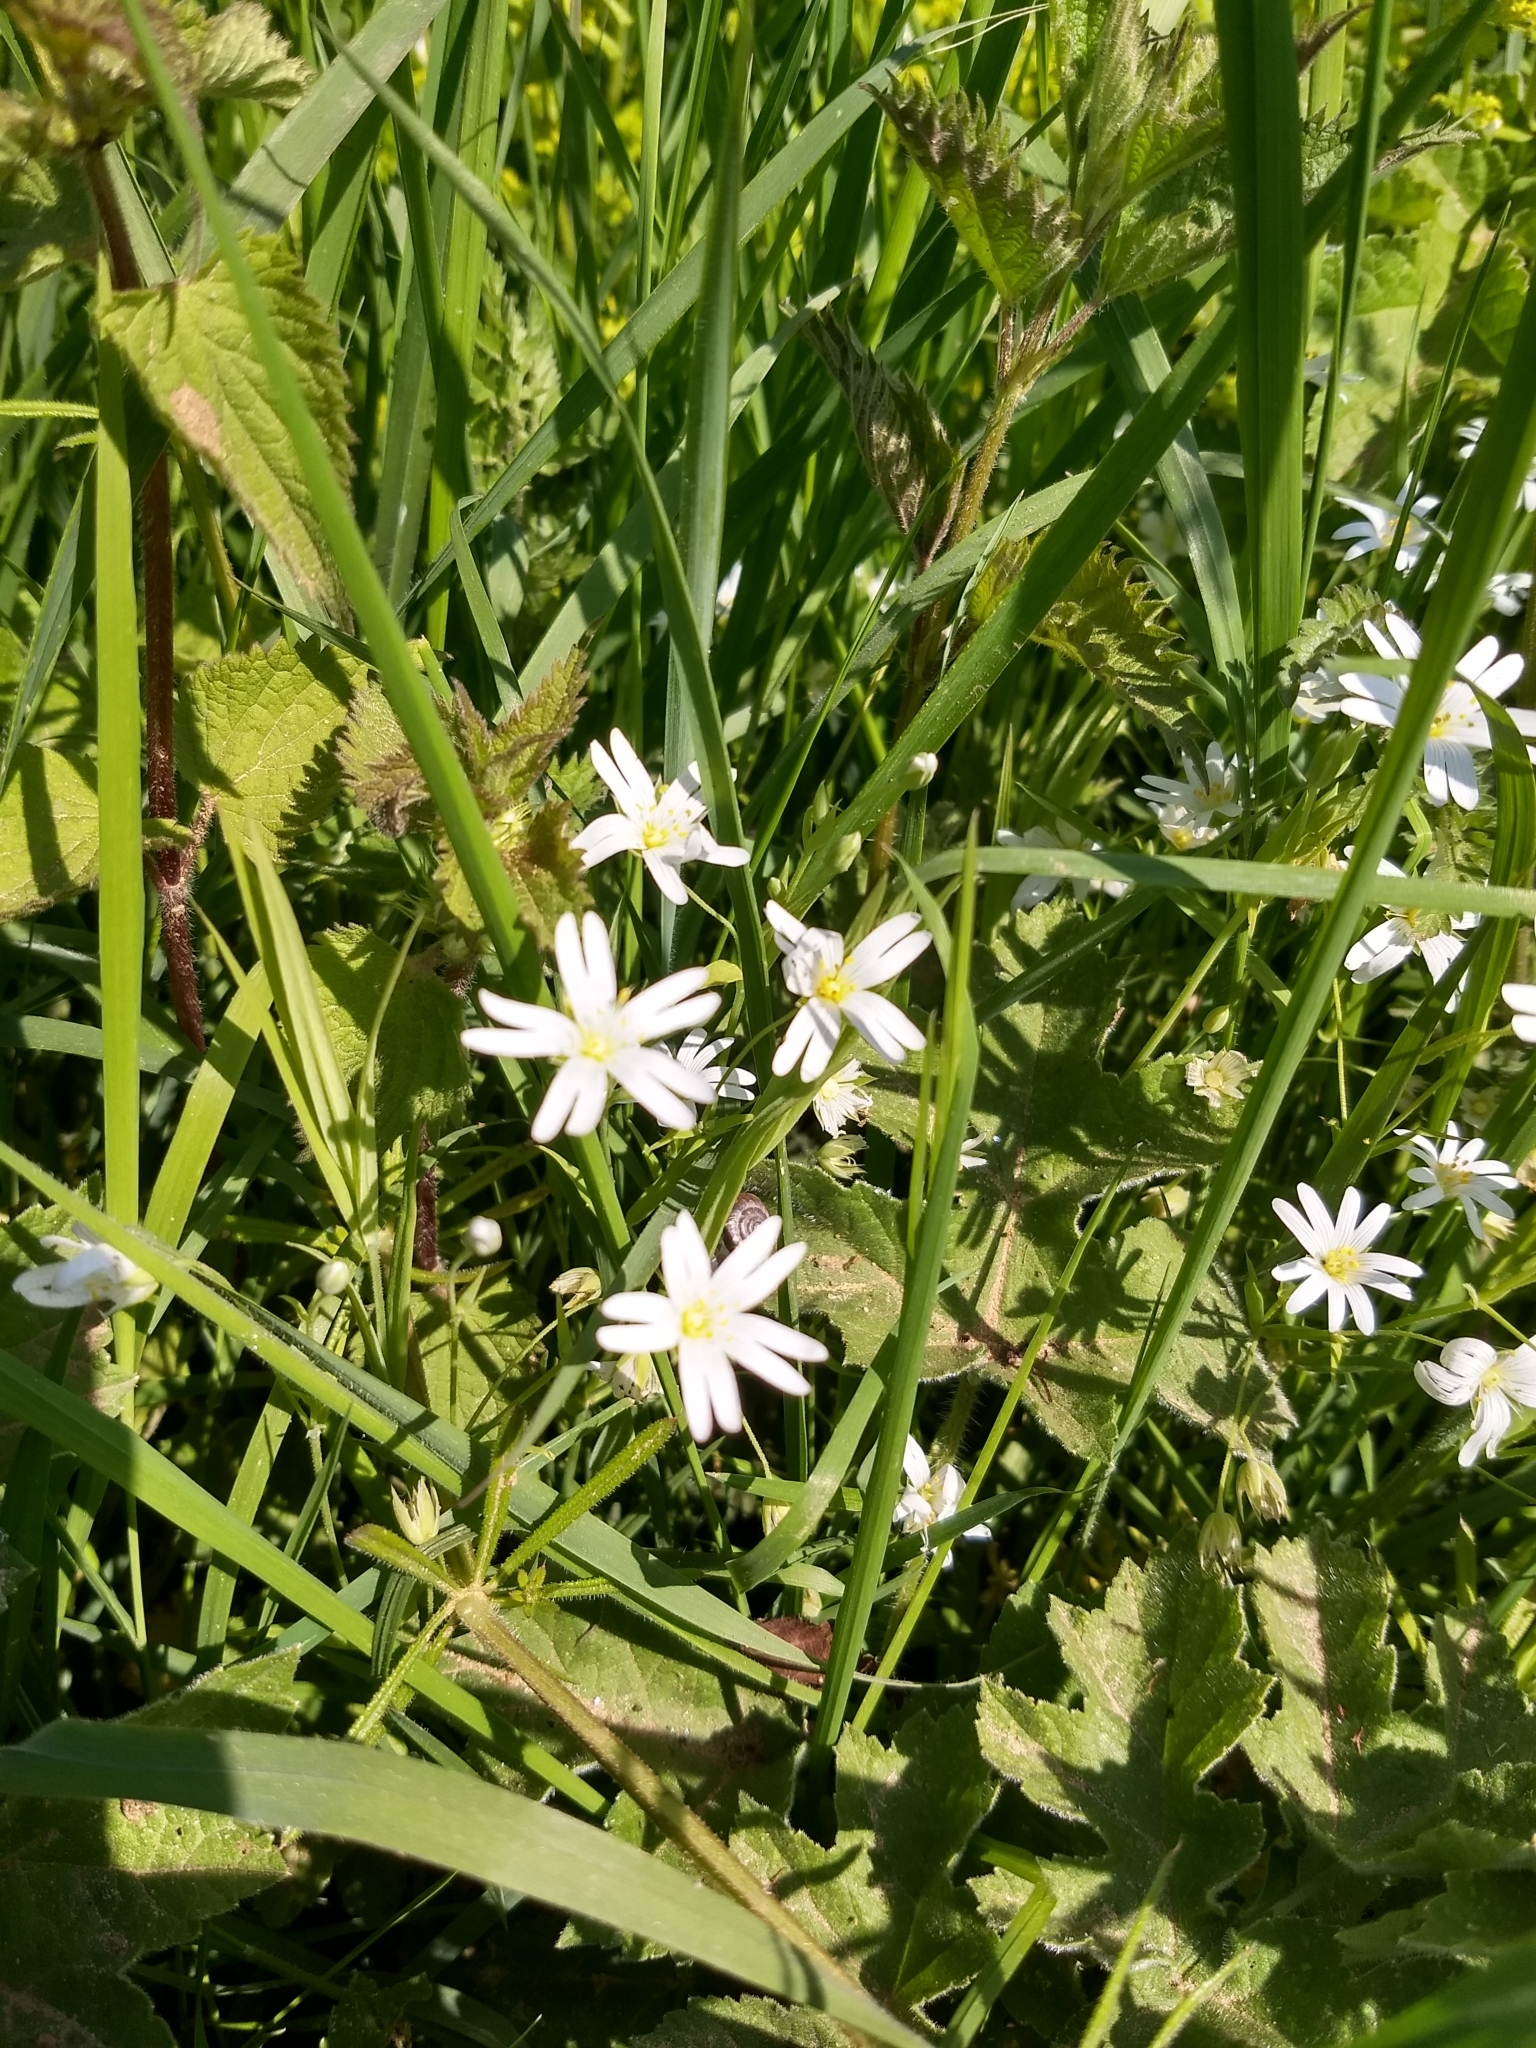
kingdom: Plantae
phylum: Tracheophyta
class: Magnoliopsida
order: Caryophyllales
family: Caryophyllaceae
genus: Rabelera
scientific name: Rabelera holostea
